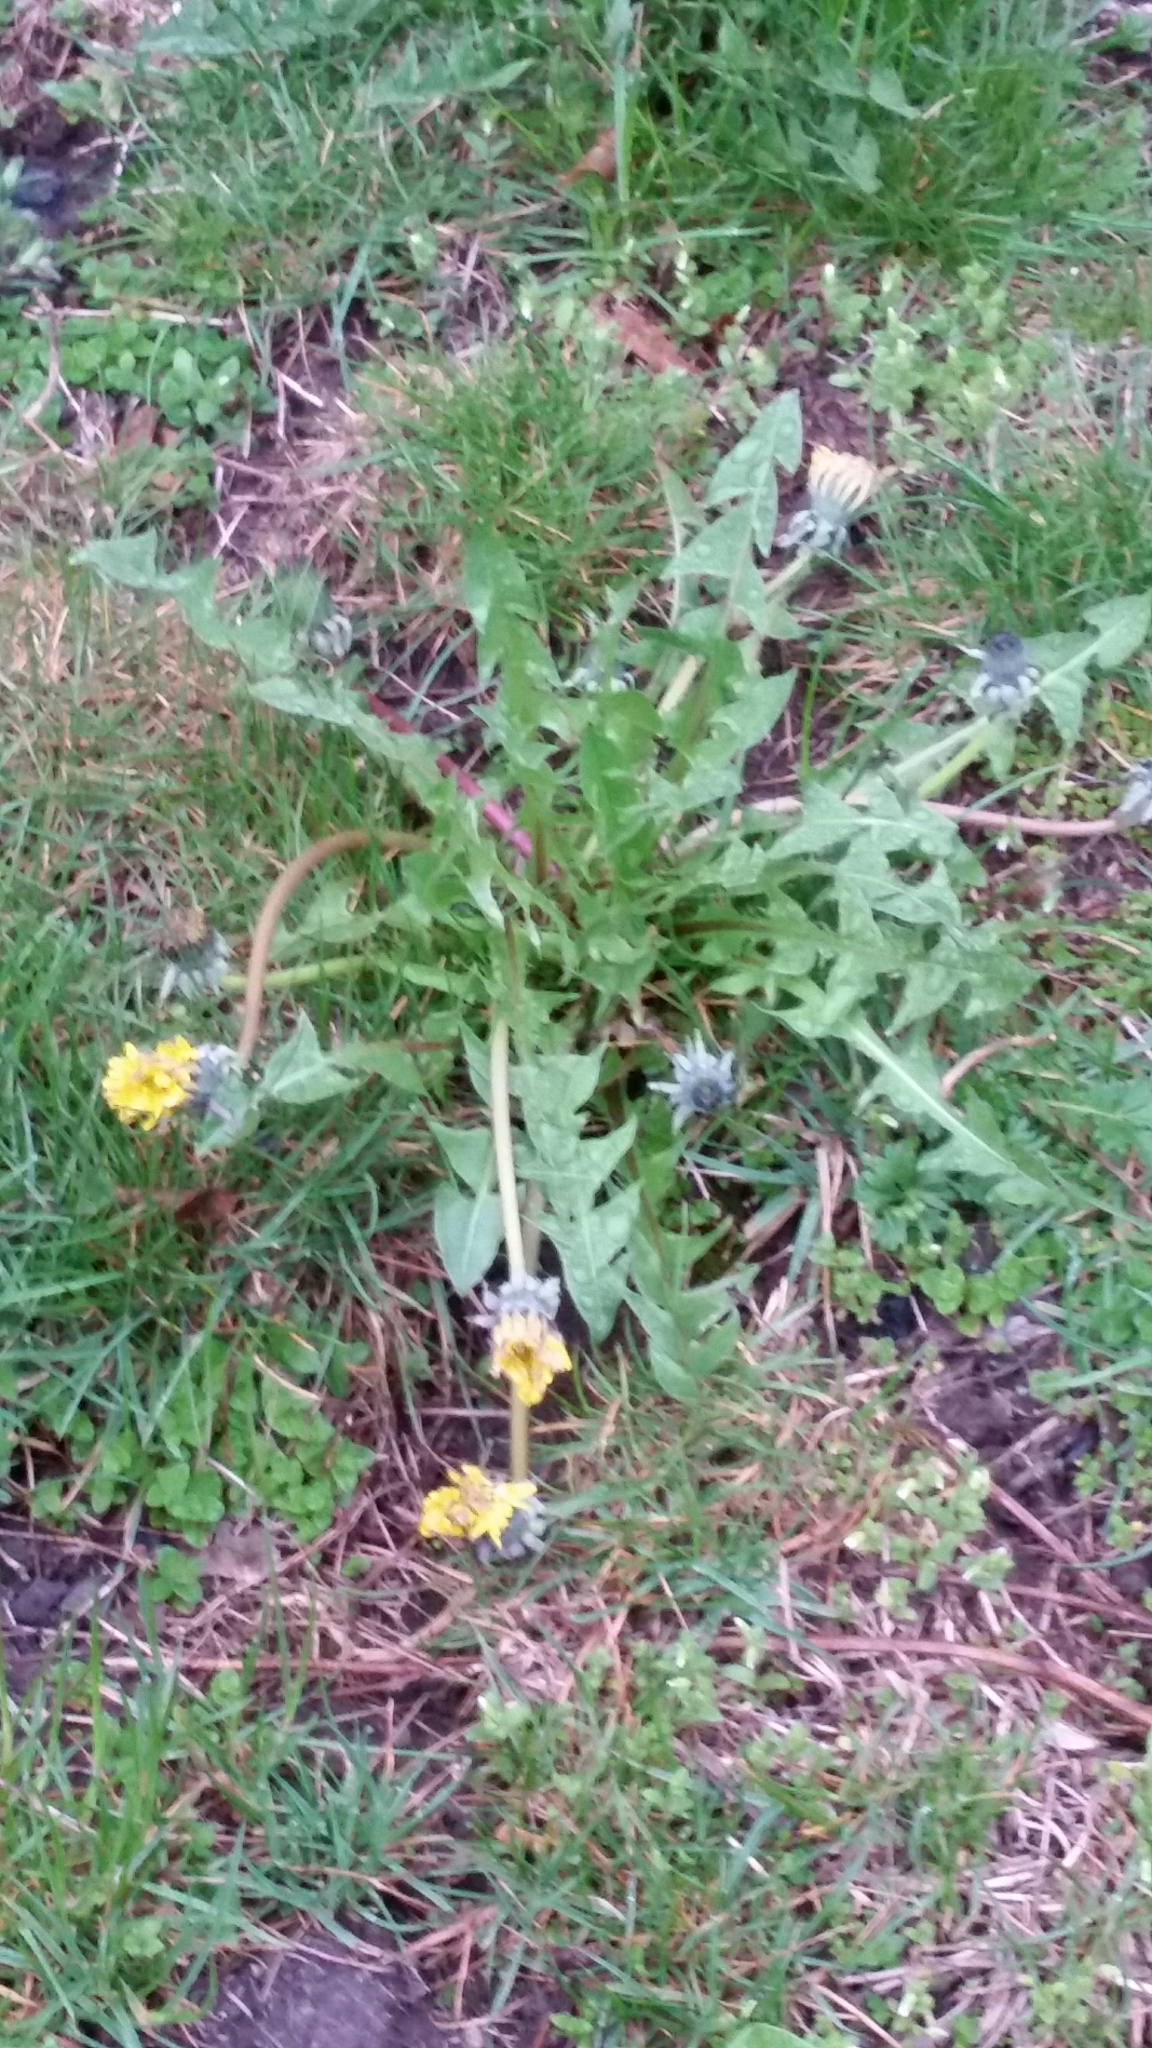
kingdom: Plantae
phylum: Tracheophyta
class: Magnoliopsida
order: Asterales
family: Asteraceae
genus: Taraxacum
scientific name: Taraxacum officinale
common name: Common dandelion
